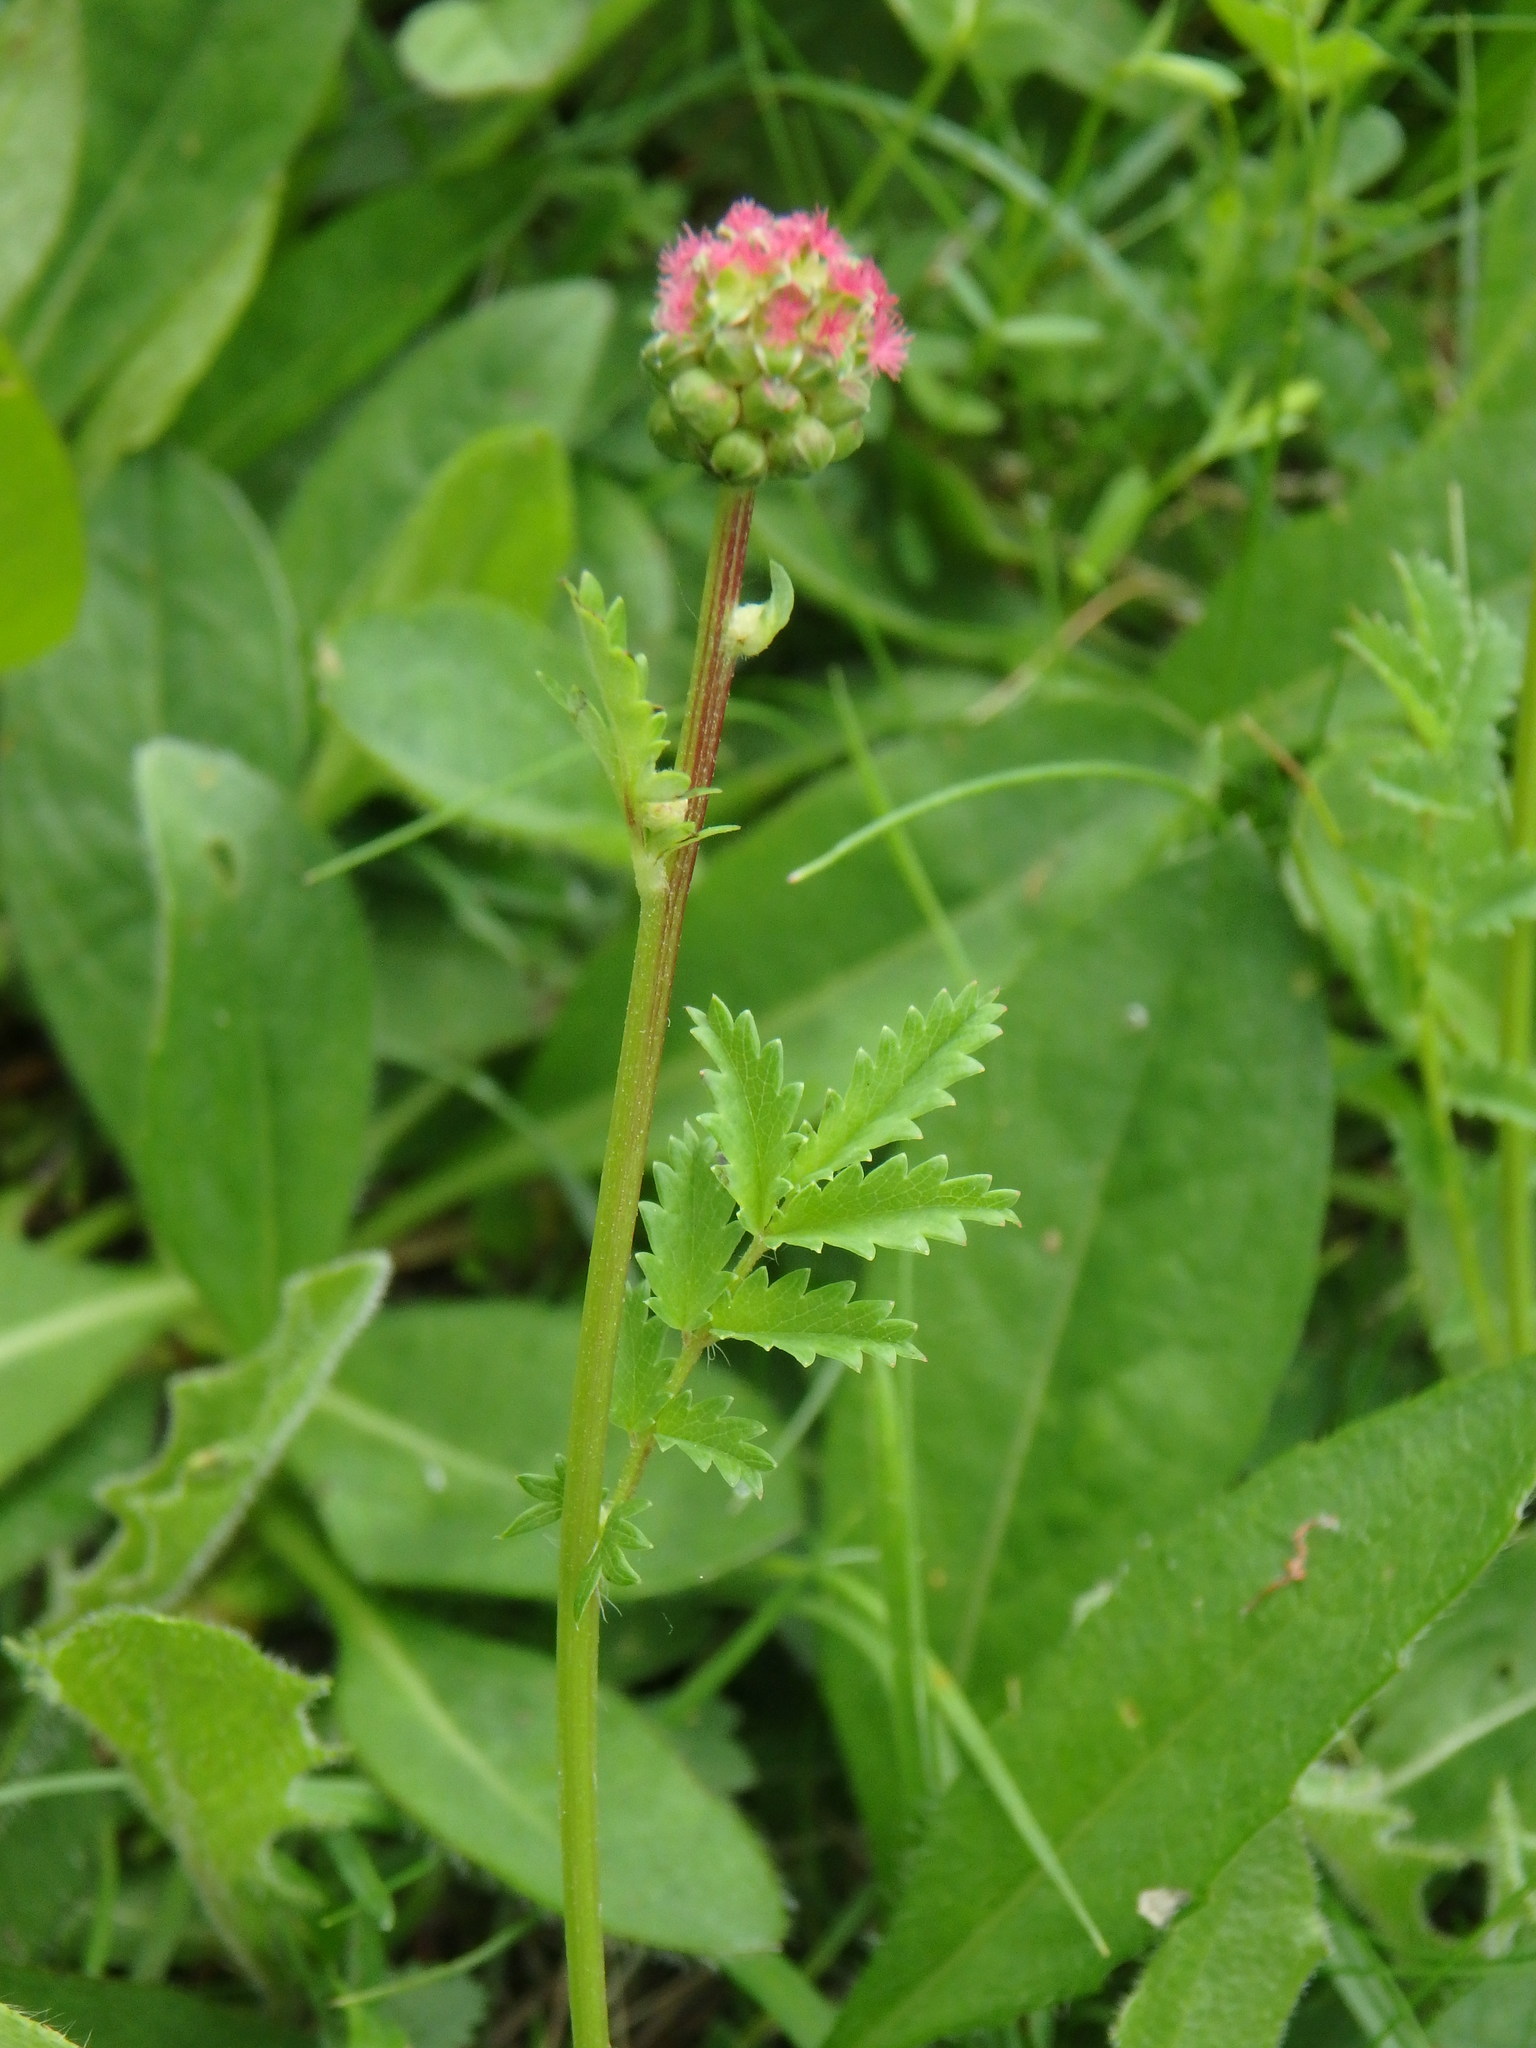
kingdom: Plantae
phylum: Tracheophyta
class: Magnoliopsida
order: Rosales
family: Rosaceae
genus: Poterium
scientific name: Poterium sanguisorba
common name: Salad burnet
